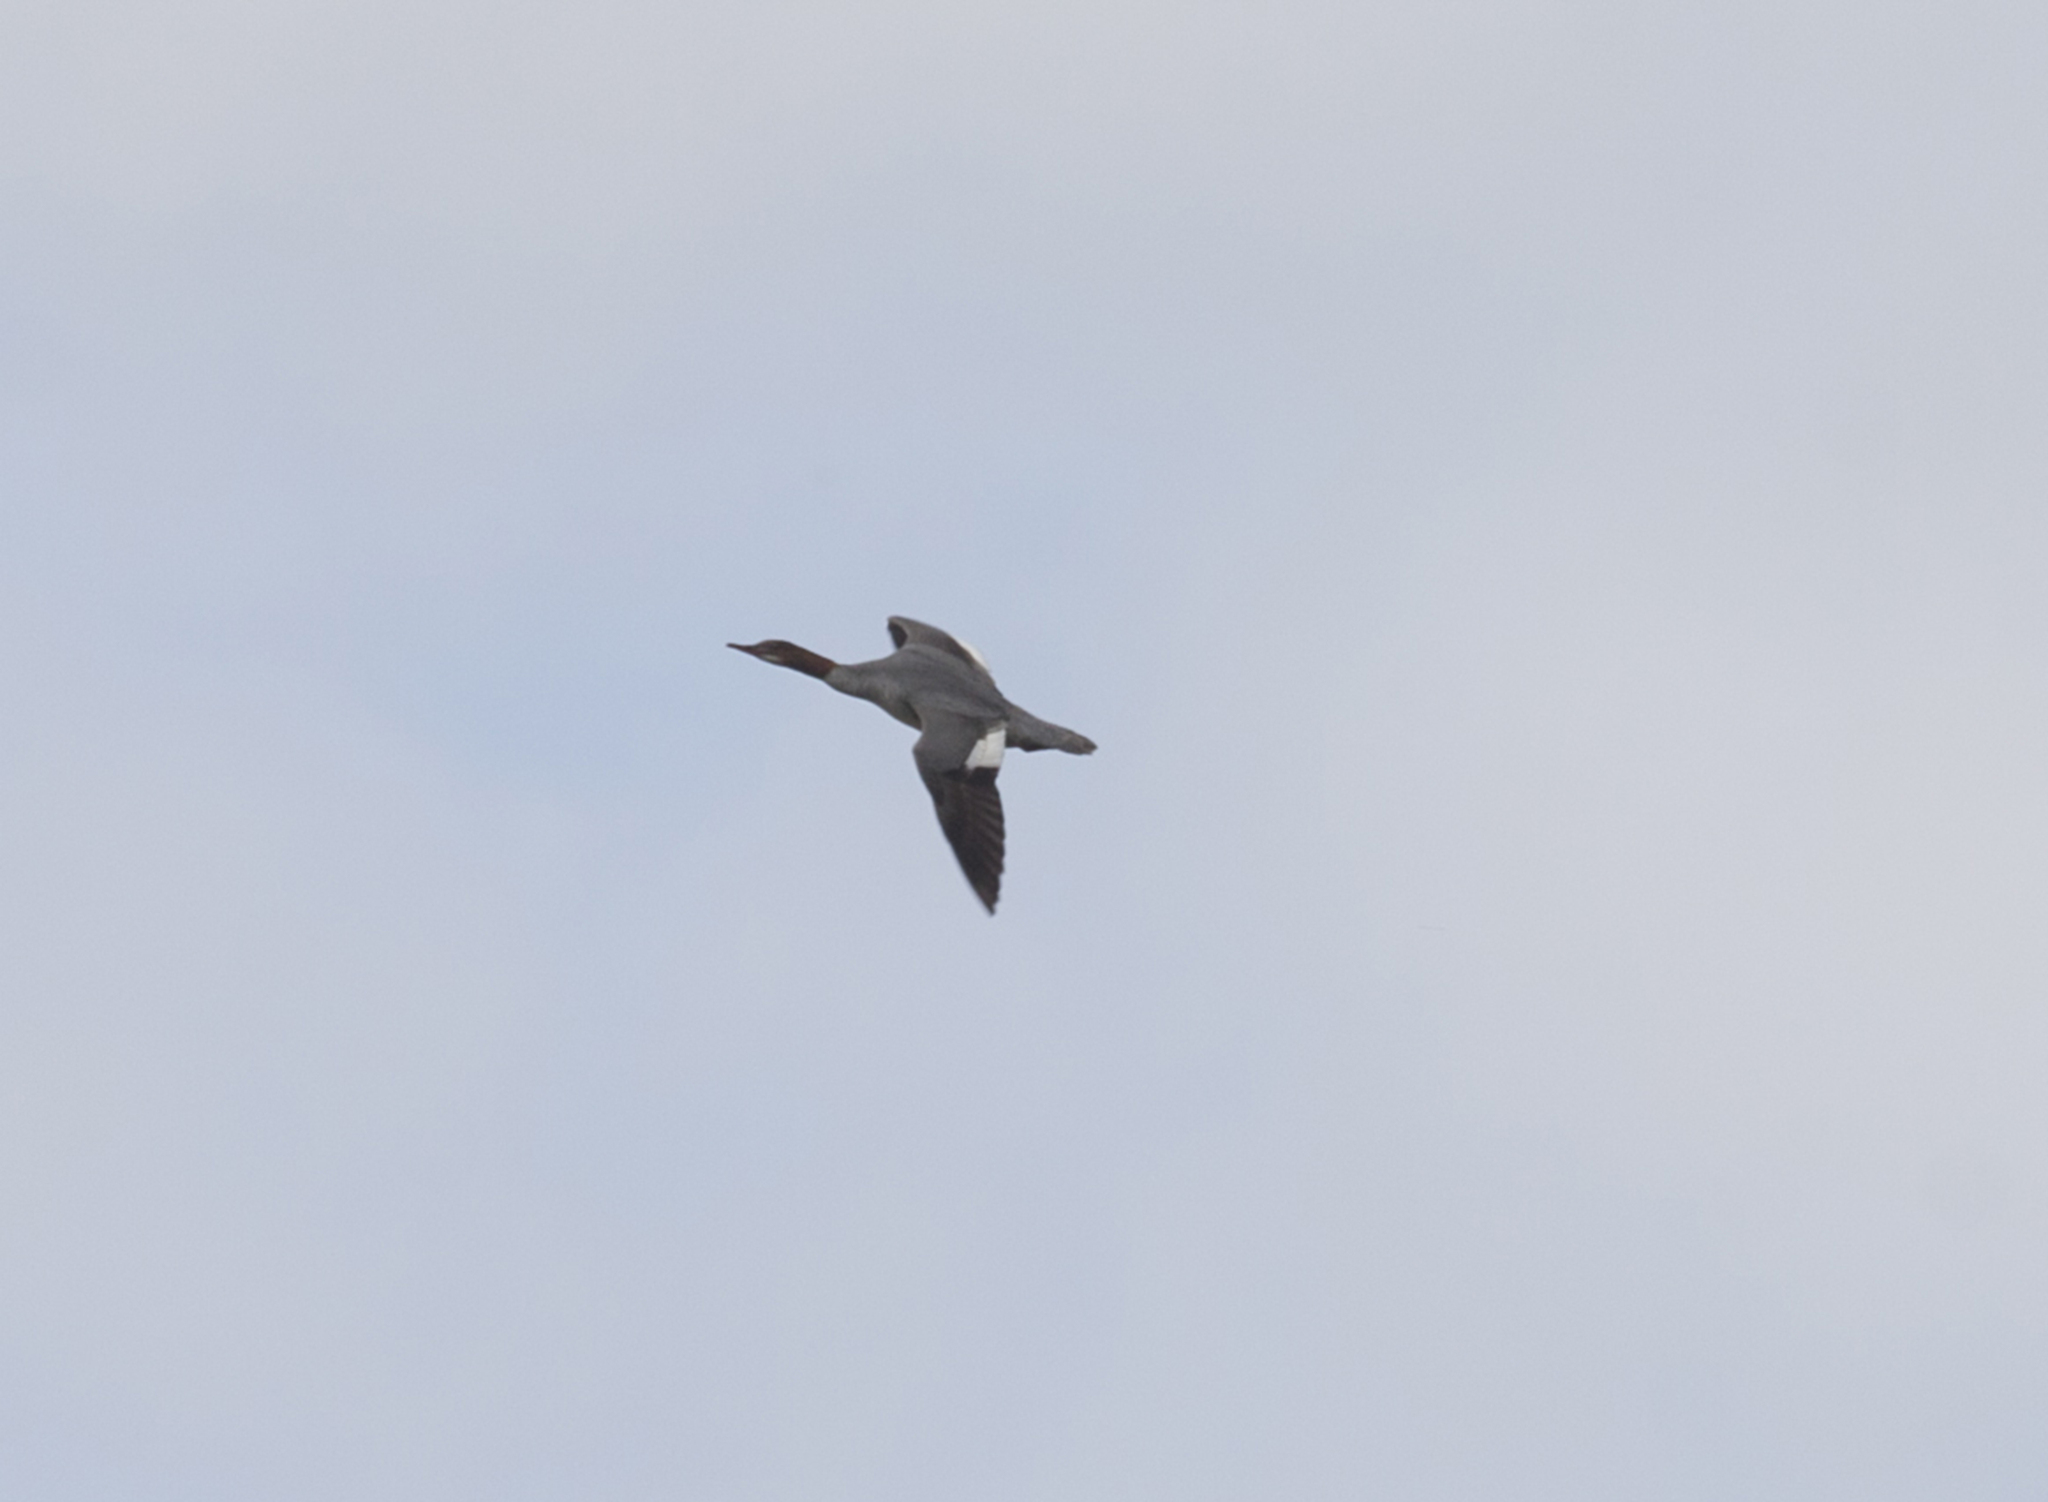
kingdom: Animalia
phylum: Chordata
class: Aves
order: Anseriformes
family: Anatidae
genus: Mergus
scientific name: Mergus merganser
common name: Common merganser
